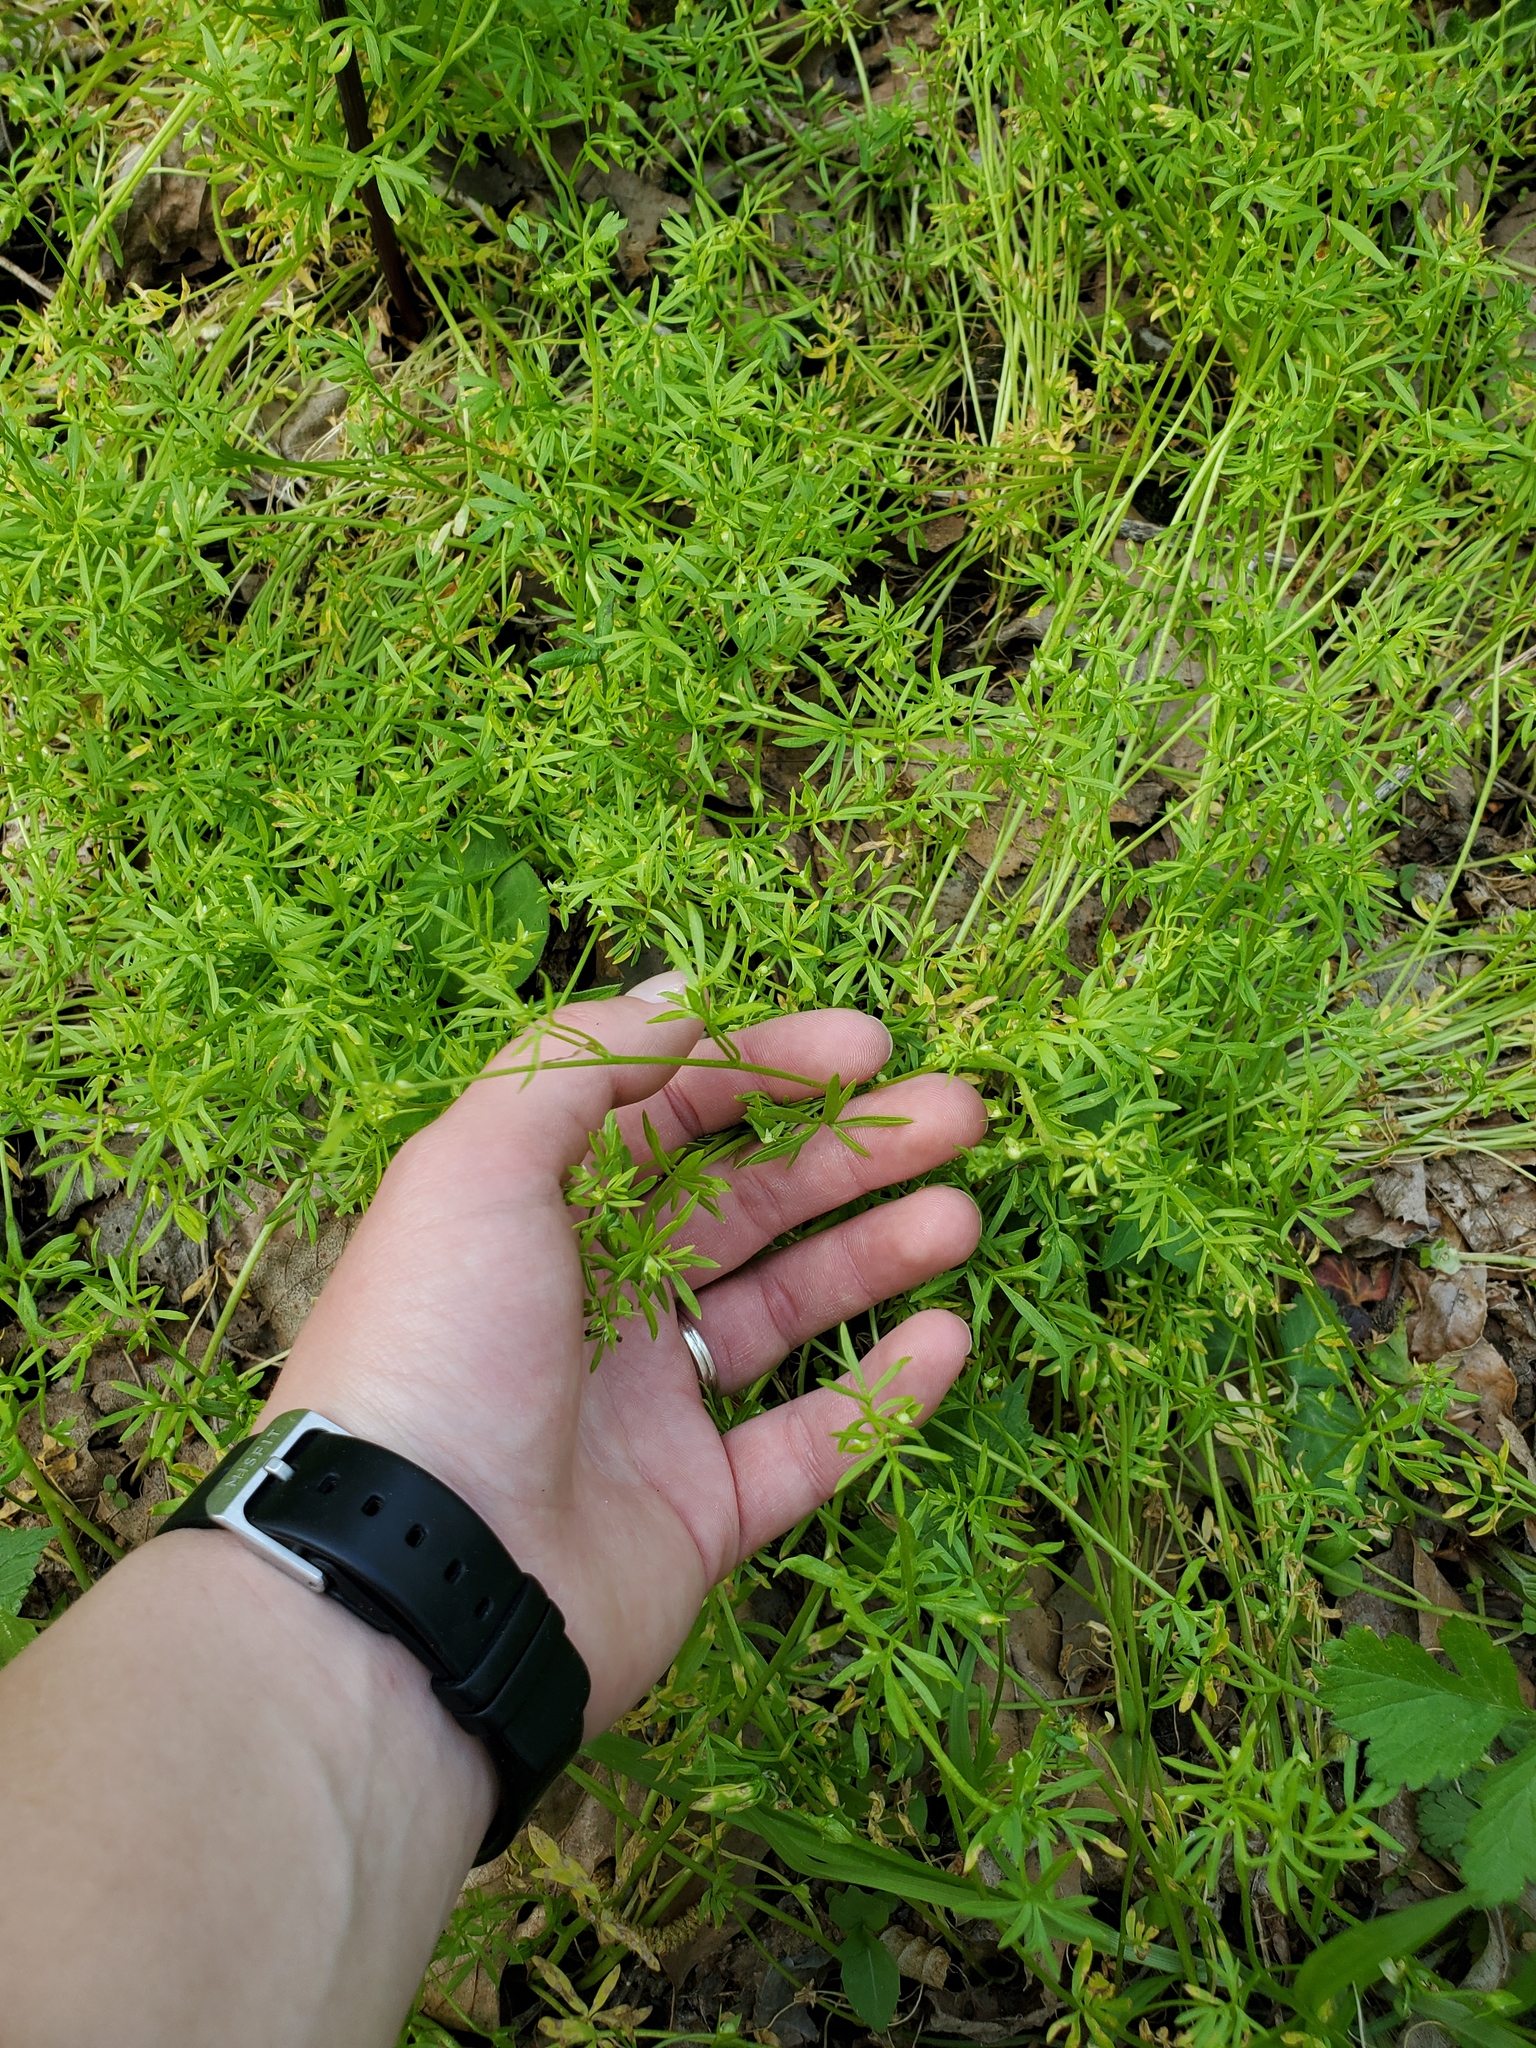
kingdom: Plantae
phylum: Tracheophyta
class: Magnoliopsida
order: Brassicales
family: Limnanthaceae
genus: Floerkea
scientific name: Floerkea proserpinacoides
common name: False mermaid
